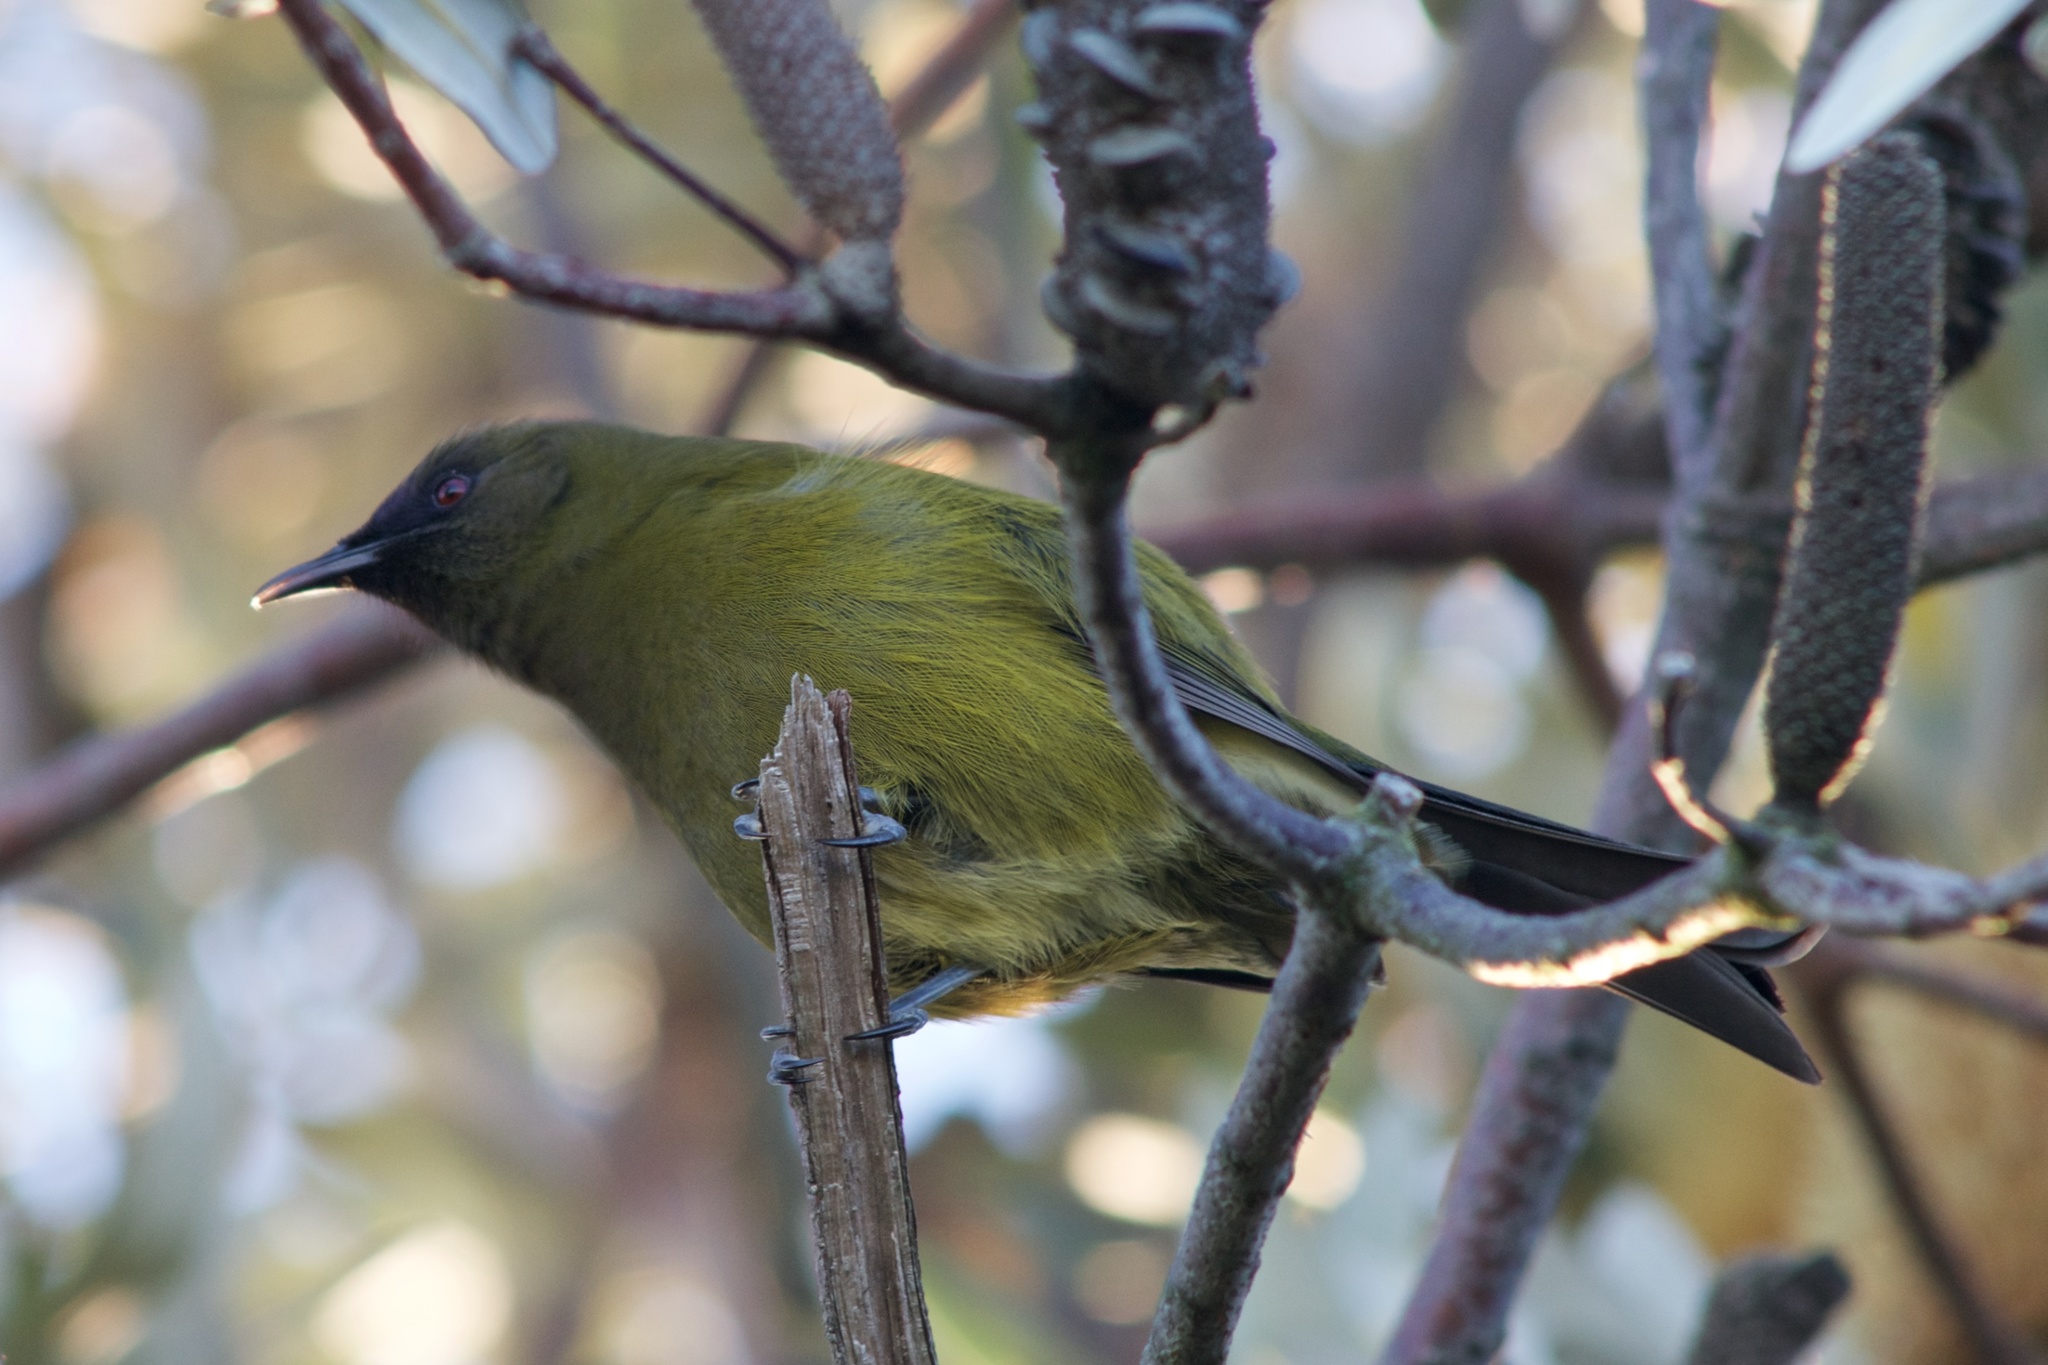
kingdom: Animalia
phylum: Chordata
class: Aves
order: Passeriformes
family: Meliphagidae
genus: Anthornis
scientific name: Anthornis melanura
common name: New zealand bellbird
